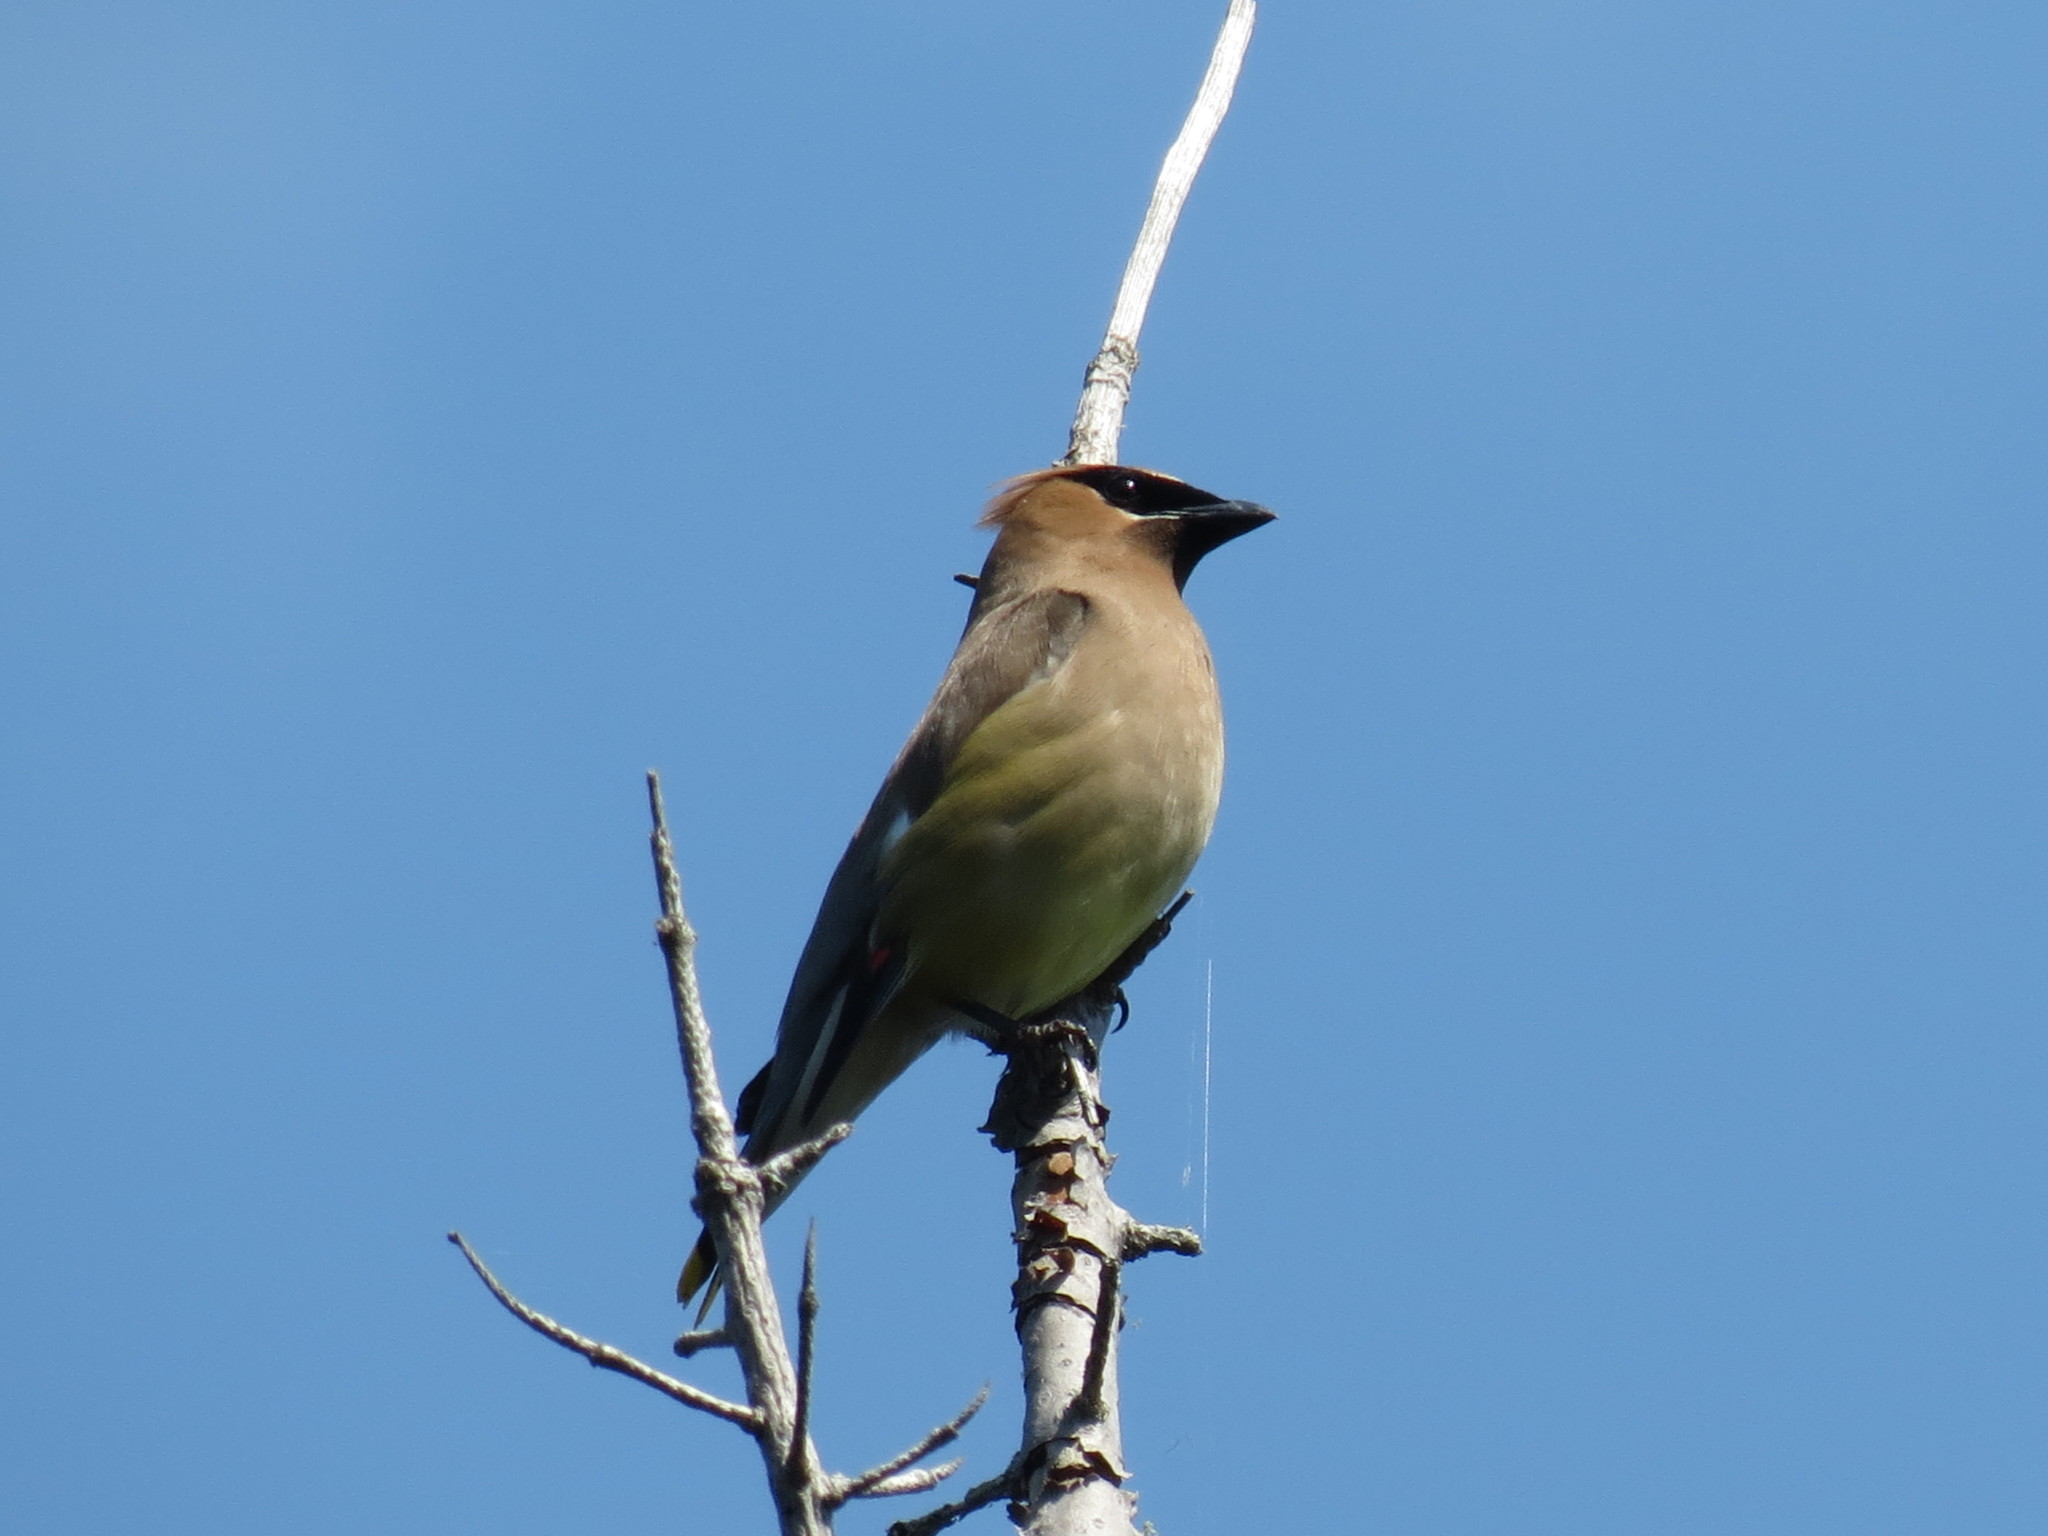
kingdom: Animalia
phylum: Chordata
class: Aves
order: Passeriformes
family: Bombycillidae
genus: Bombycilla
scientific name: Bombycilla cedrorum
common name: Cedar waxwing
